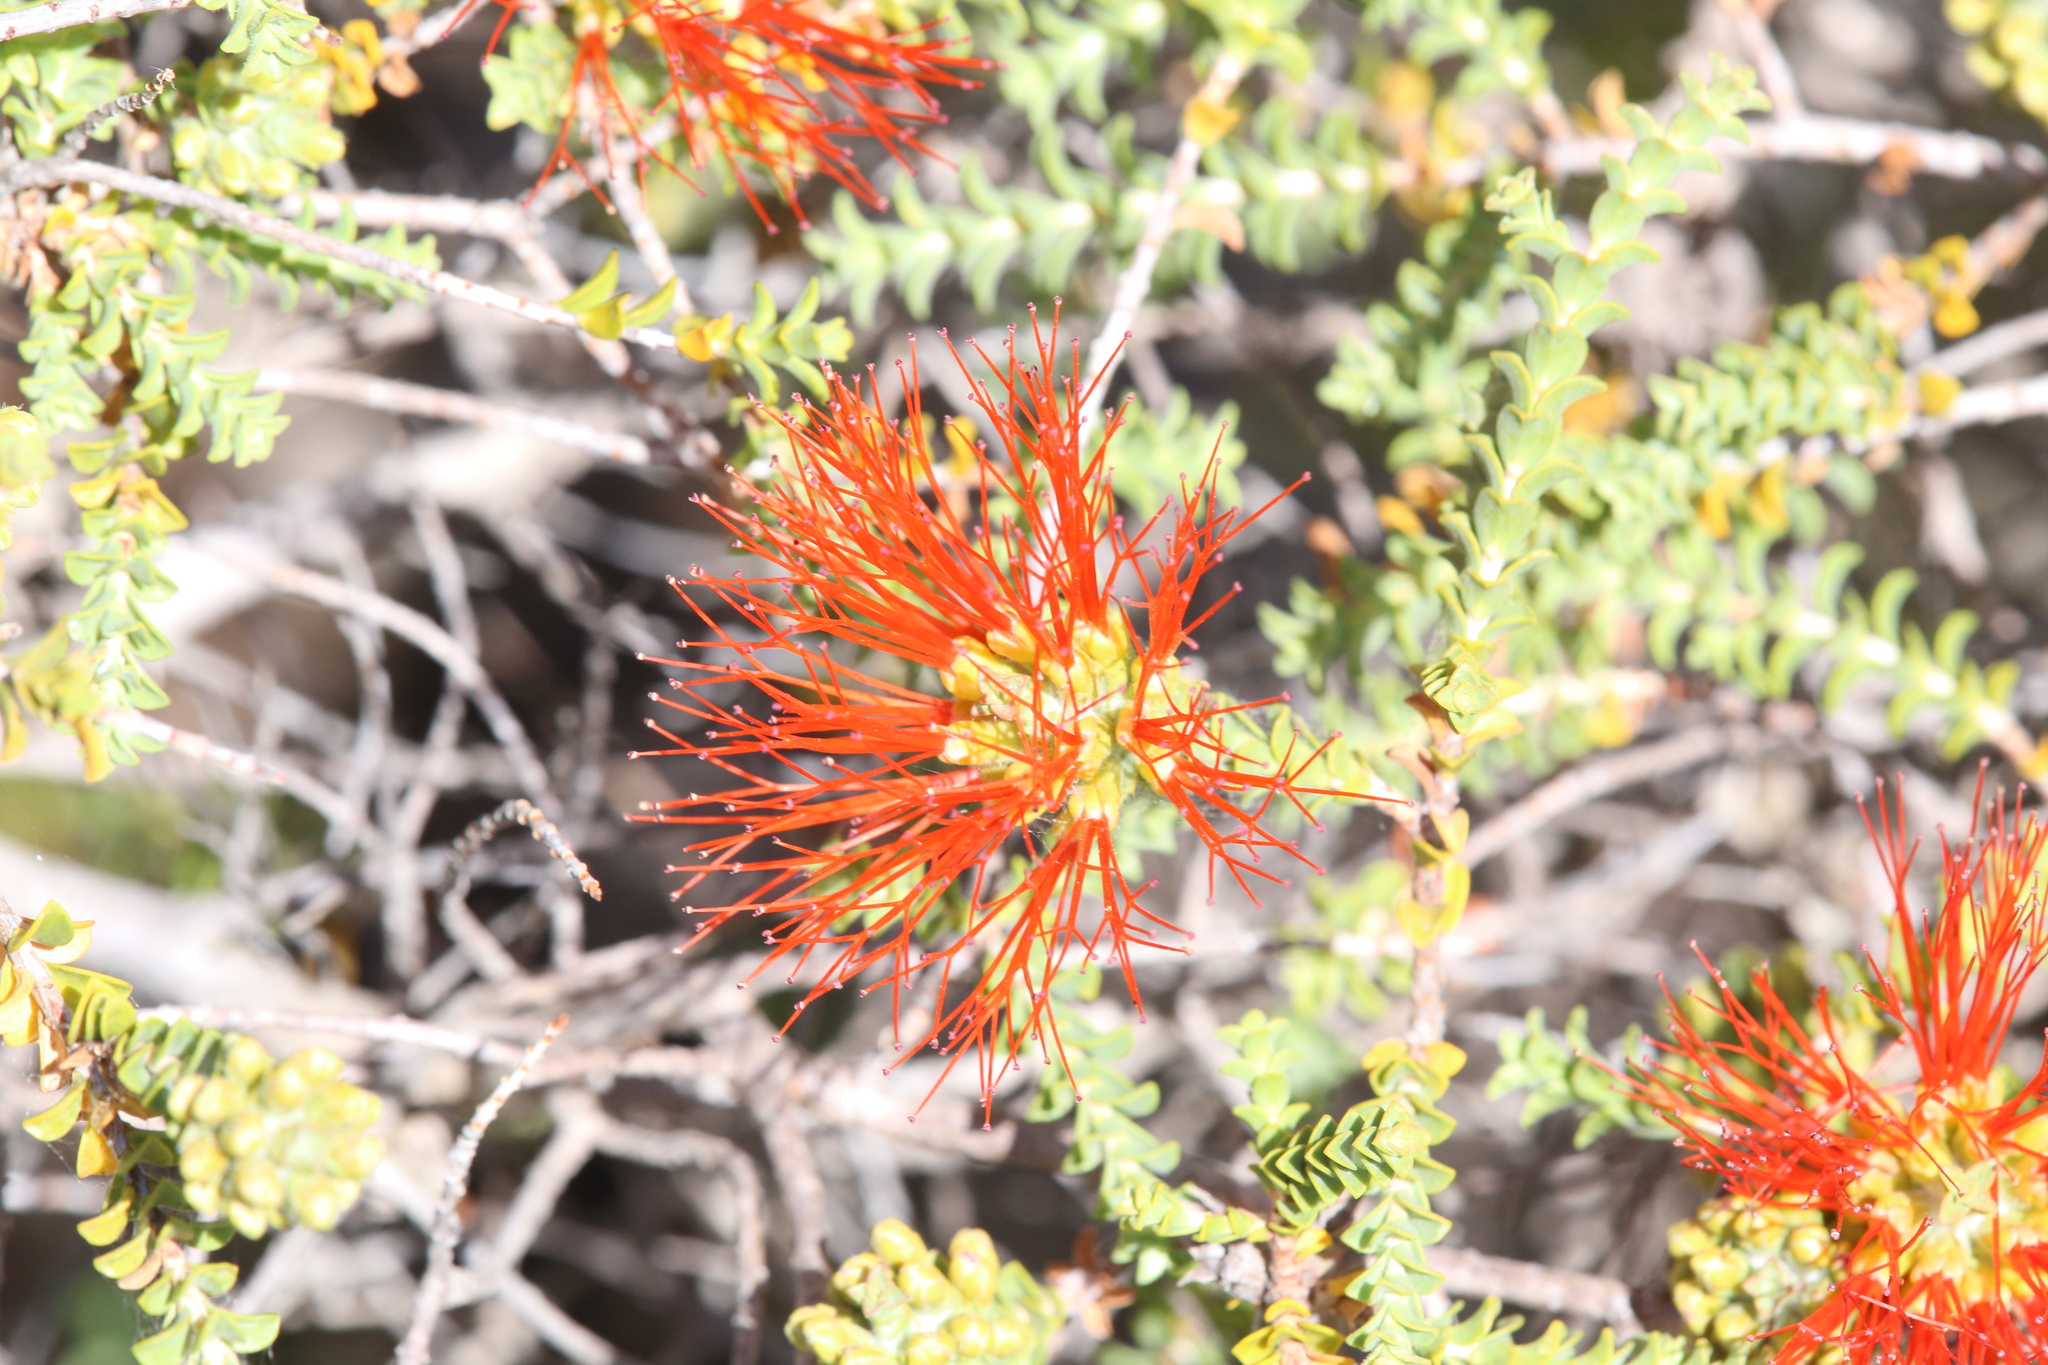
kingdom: Plantae
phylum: Tracheophyta
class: Magnoliopsida
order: Myrtales
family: Myrtaceae
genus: Melaleuca
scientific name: Melaleuca aestiva
